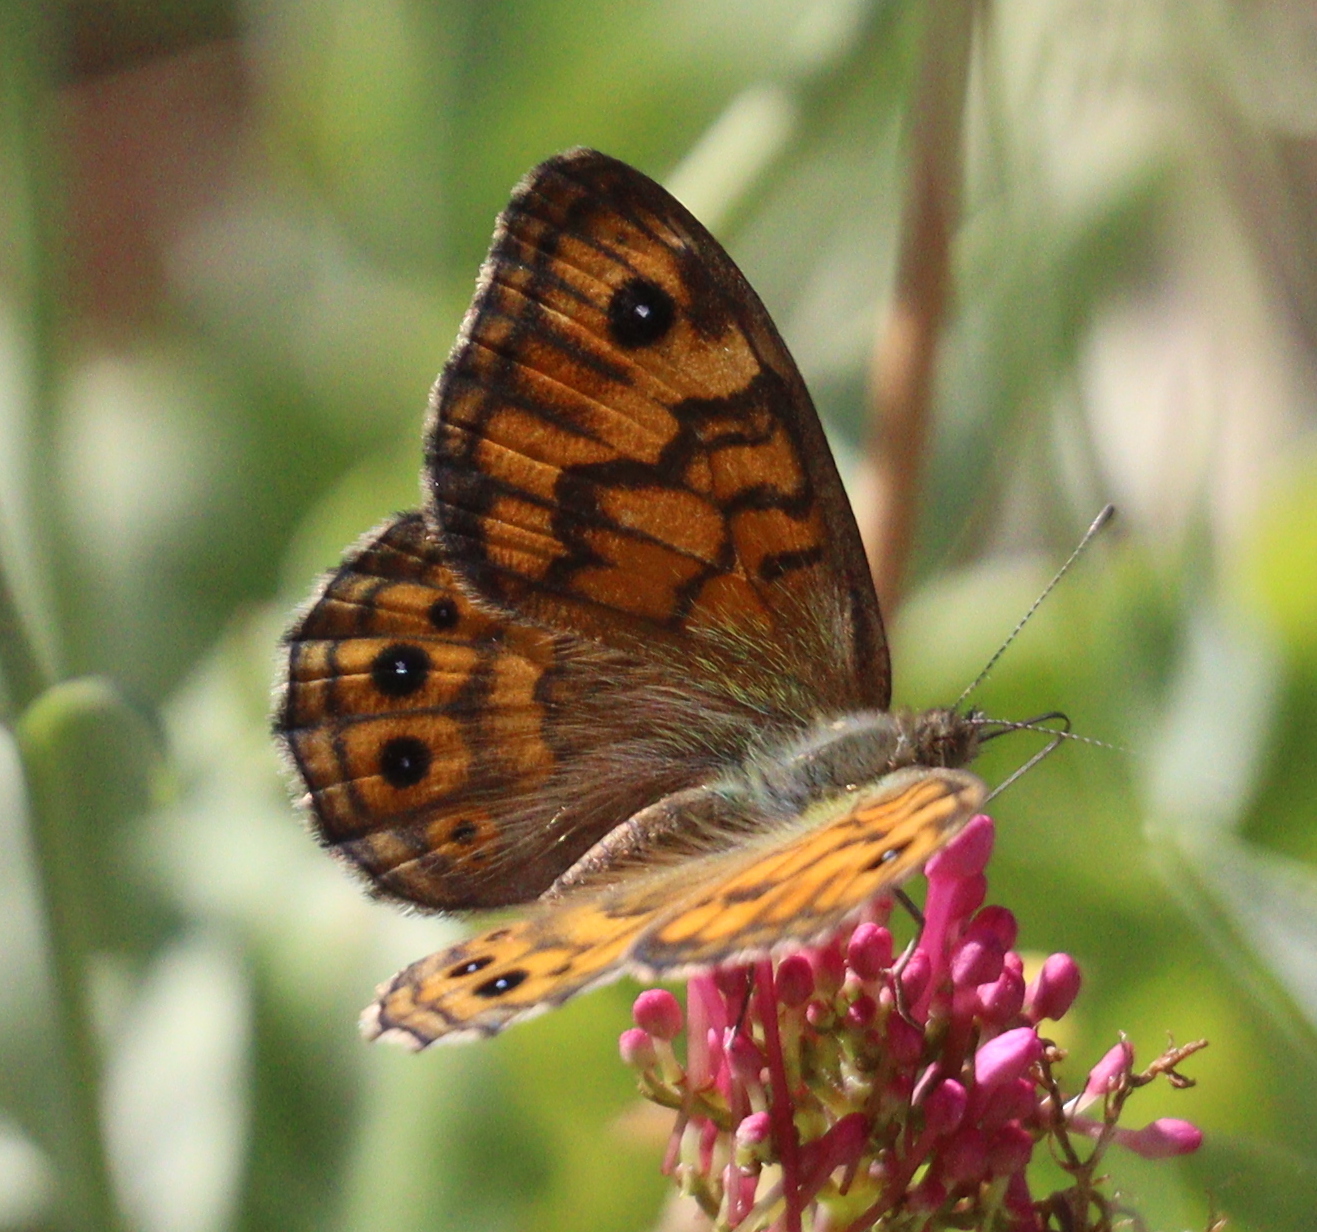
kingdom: Animalia
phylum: Arthropoda
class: Insecta
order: Lepidoptera
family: Nymphalidae
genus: Pararge
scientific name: Pararge Lasiommata megera
